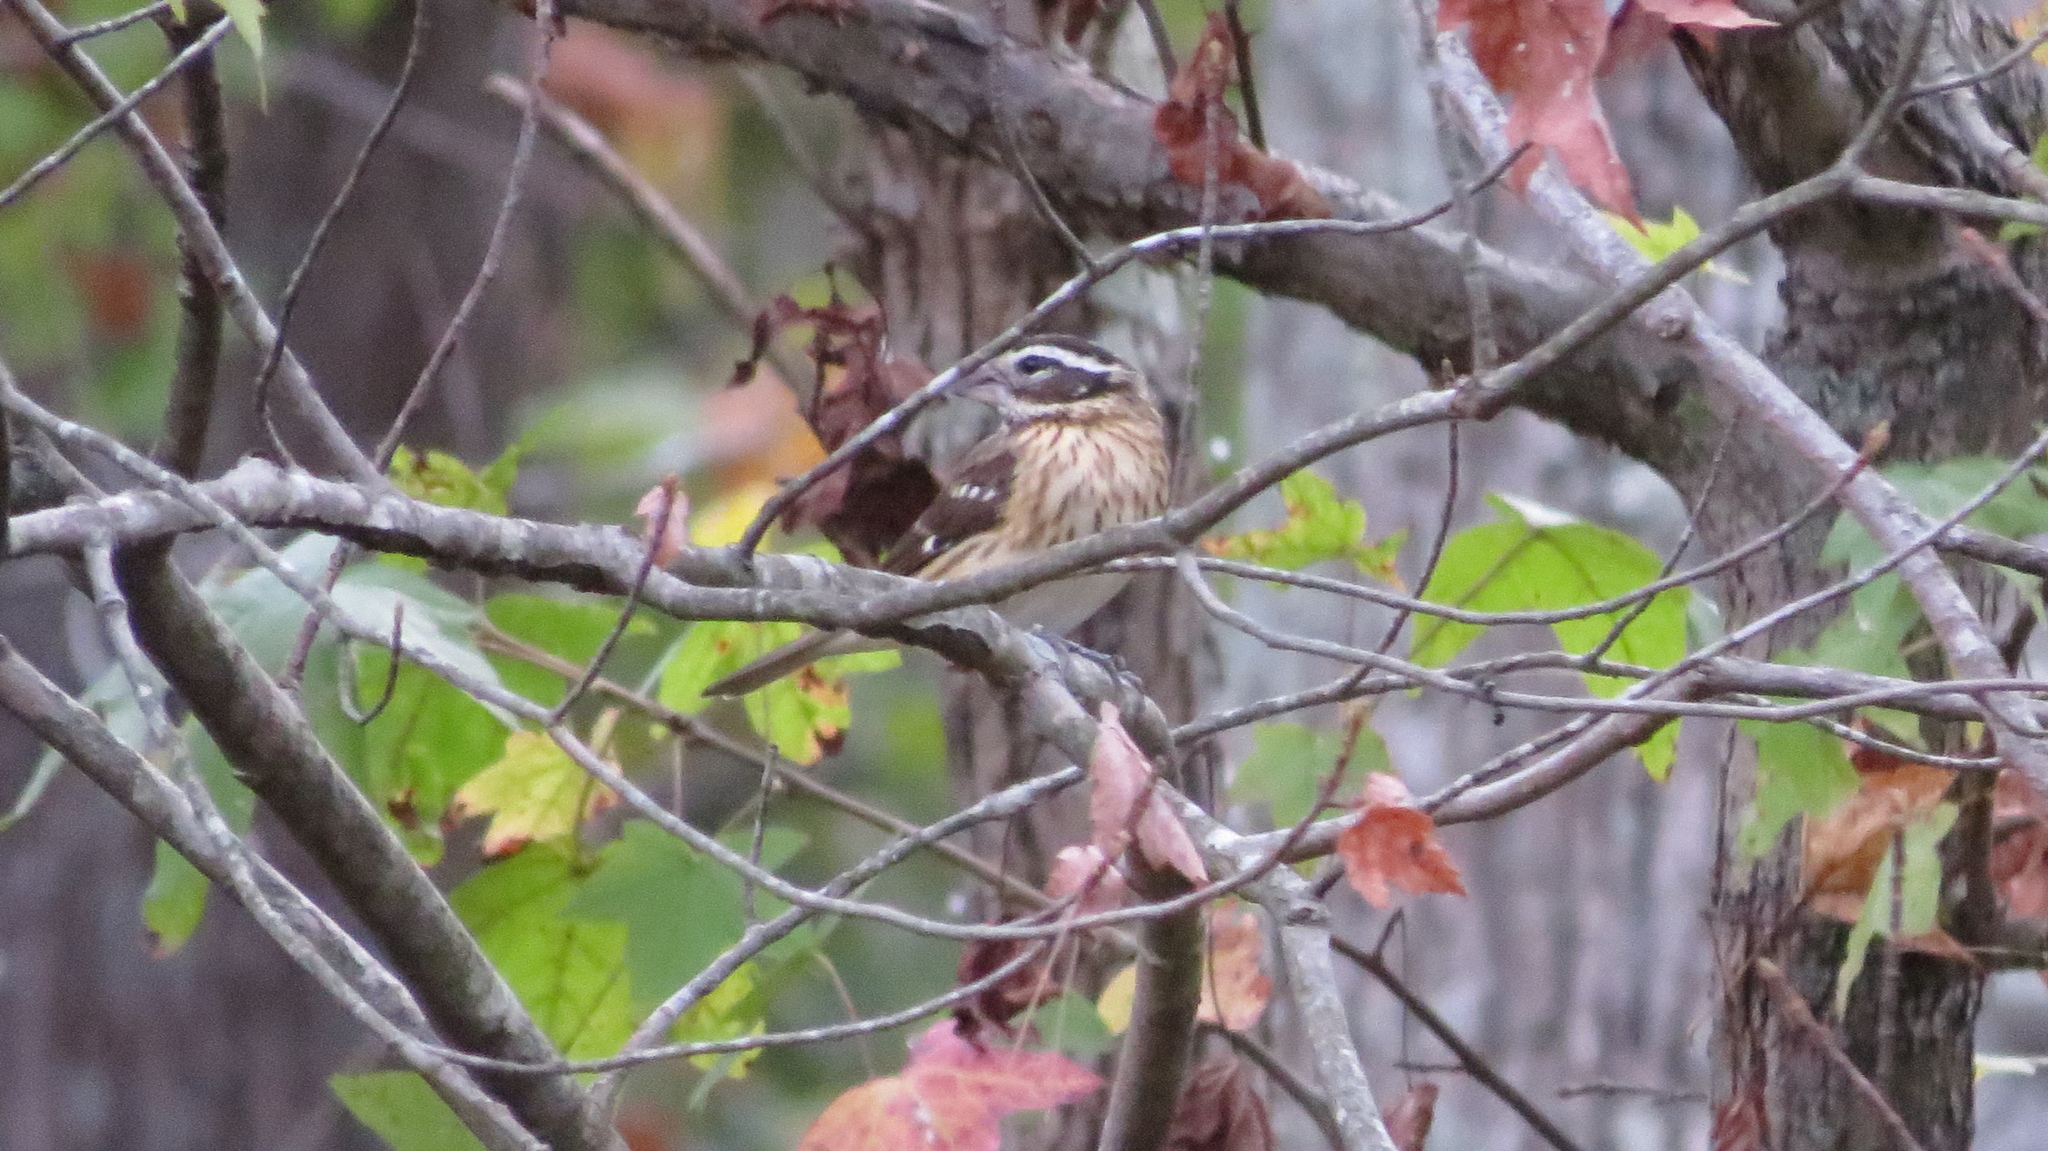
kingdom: Animalia
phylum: Chordata
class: Aves
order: Passeriformes
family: Cardinalidae
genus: Pheucticus
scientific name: Pheucticus ludovicianus
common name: Rose-breasted grosbeak
